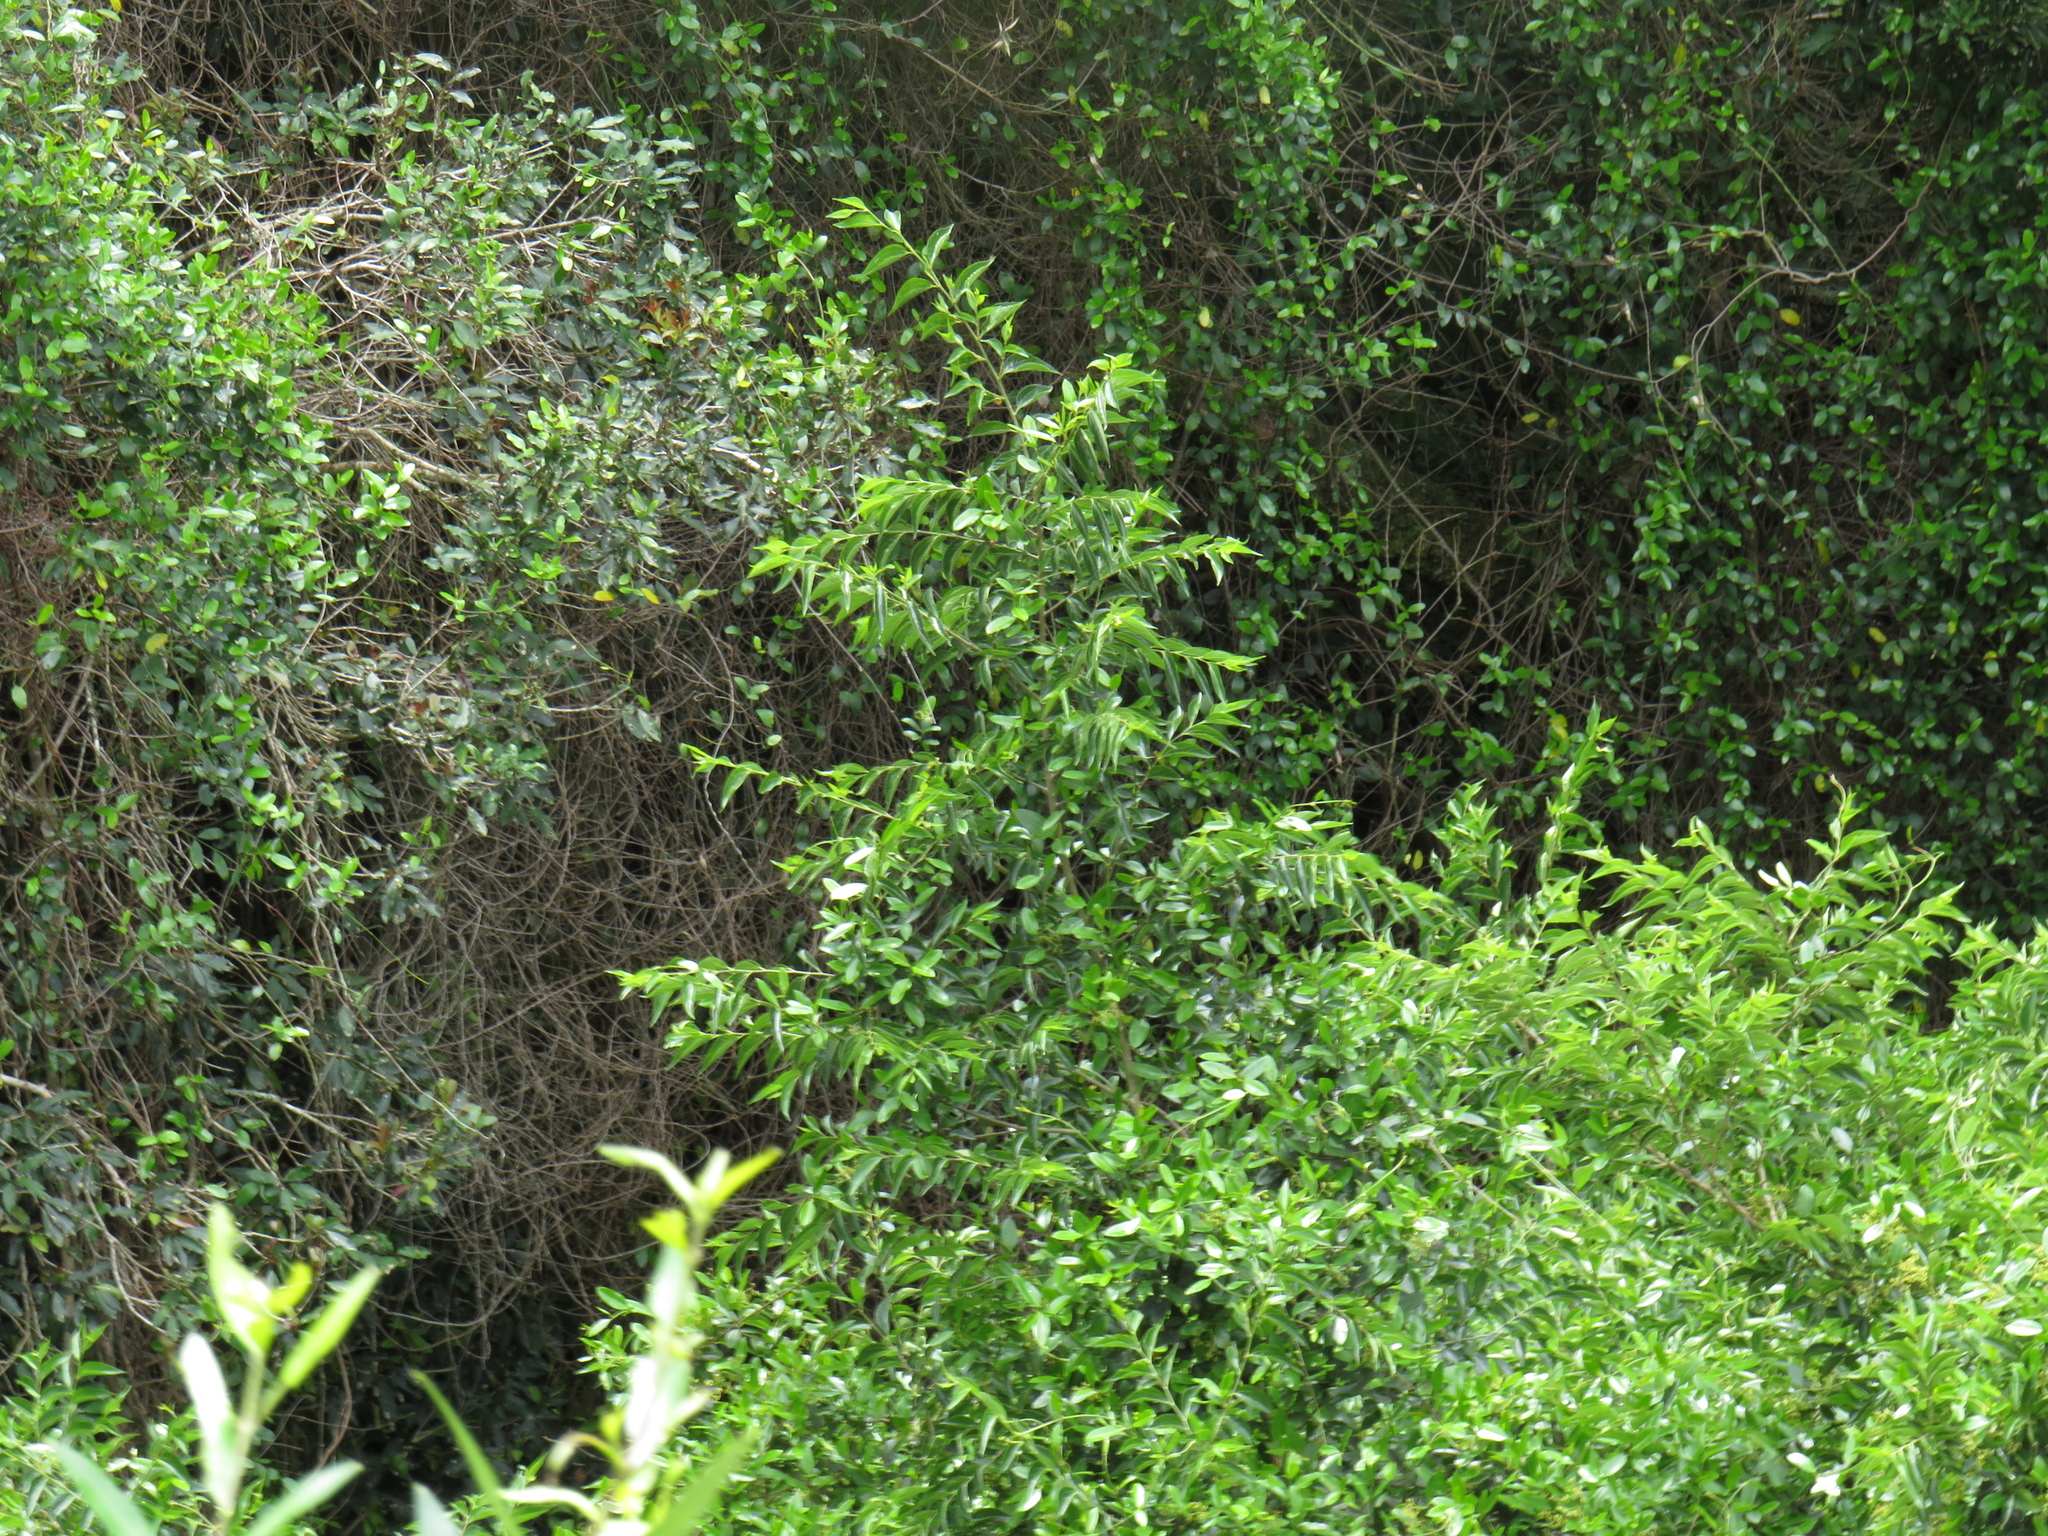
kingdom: Plantae
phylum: Tracheophyta
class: Magnoliopsida
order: Rosales
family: Cannabaceae
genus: Celtis
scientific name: Celtis africana
